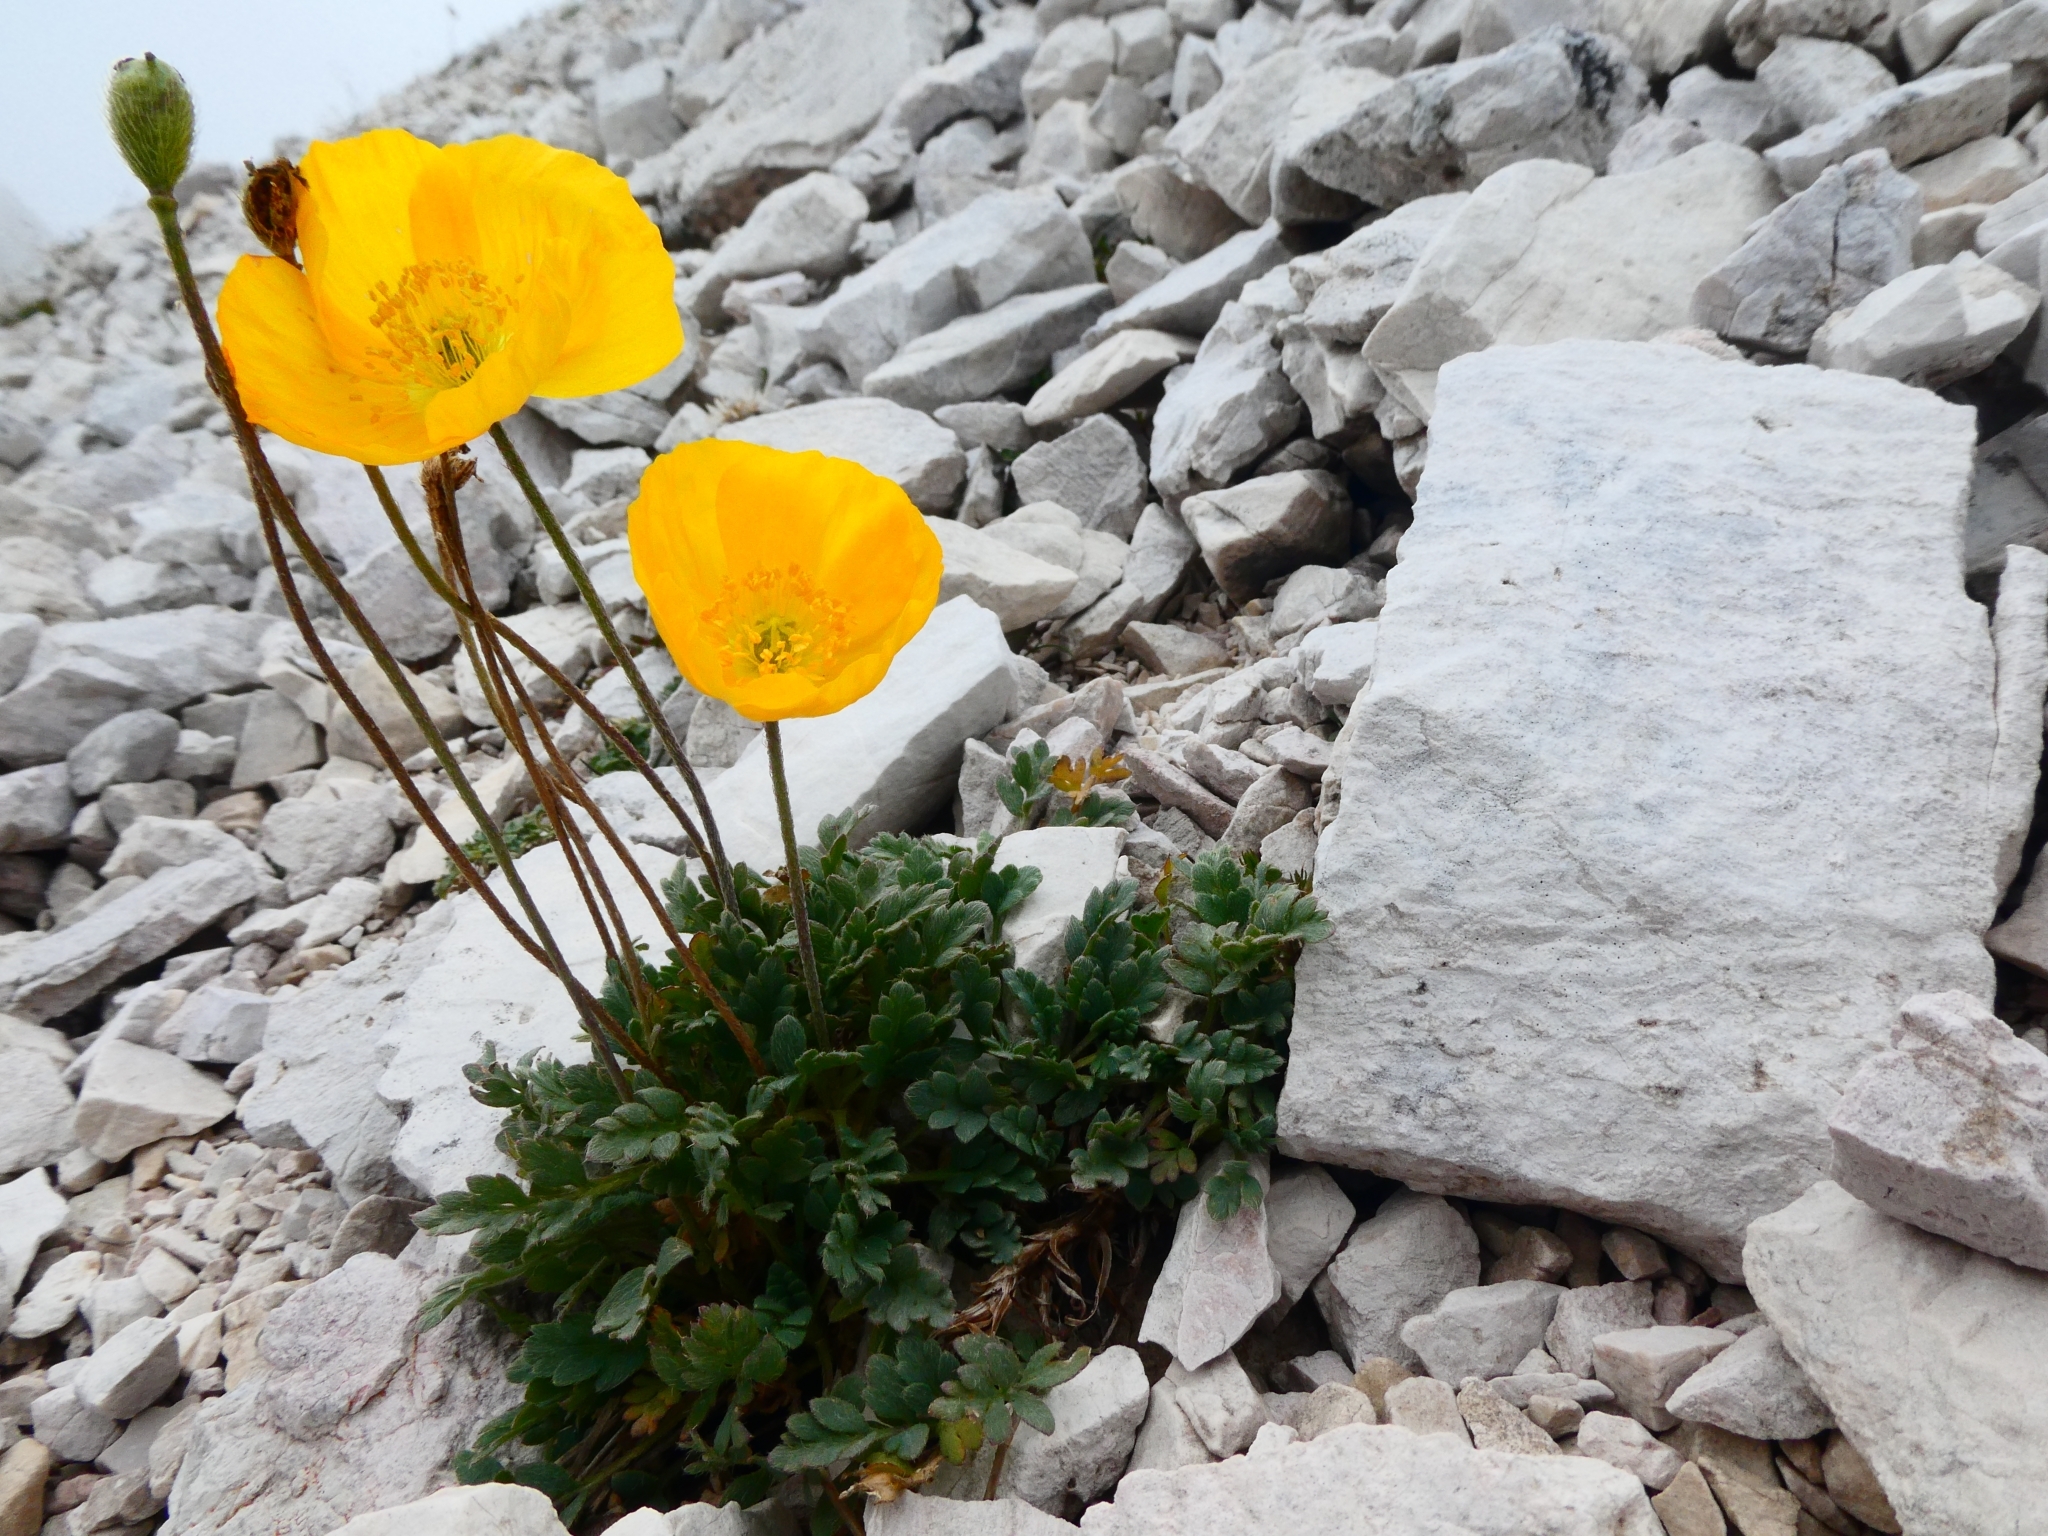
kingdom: Plantae
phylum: Tracheophyta
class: Magnoliopsida
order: Ranunculales
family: Papaveraceae
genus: Papaver
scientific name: Papaver alpinum
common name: Austrian poppy
